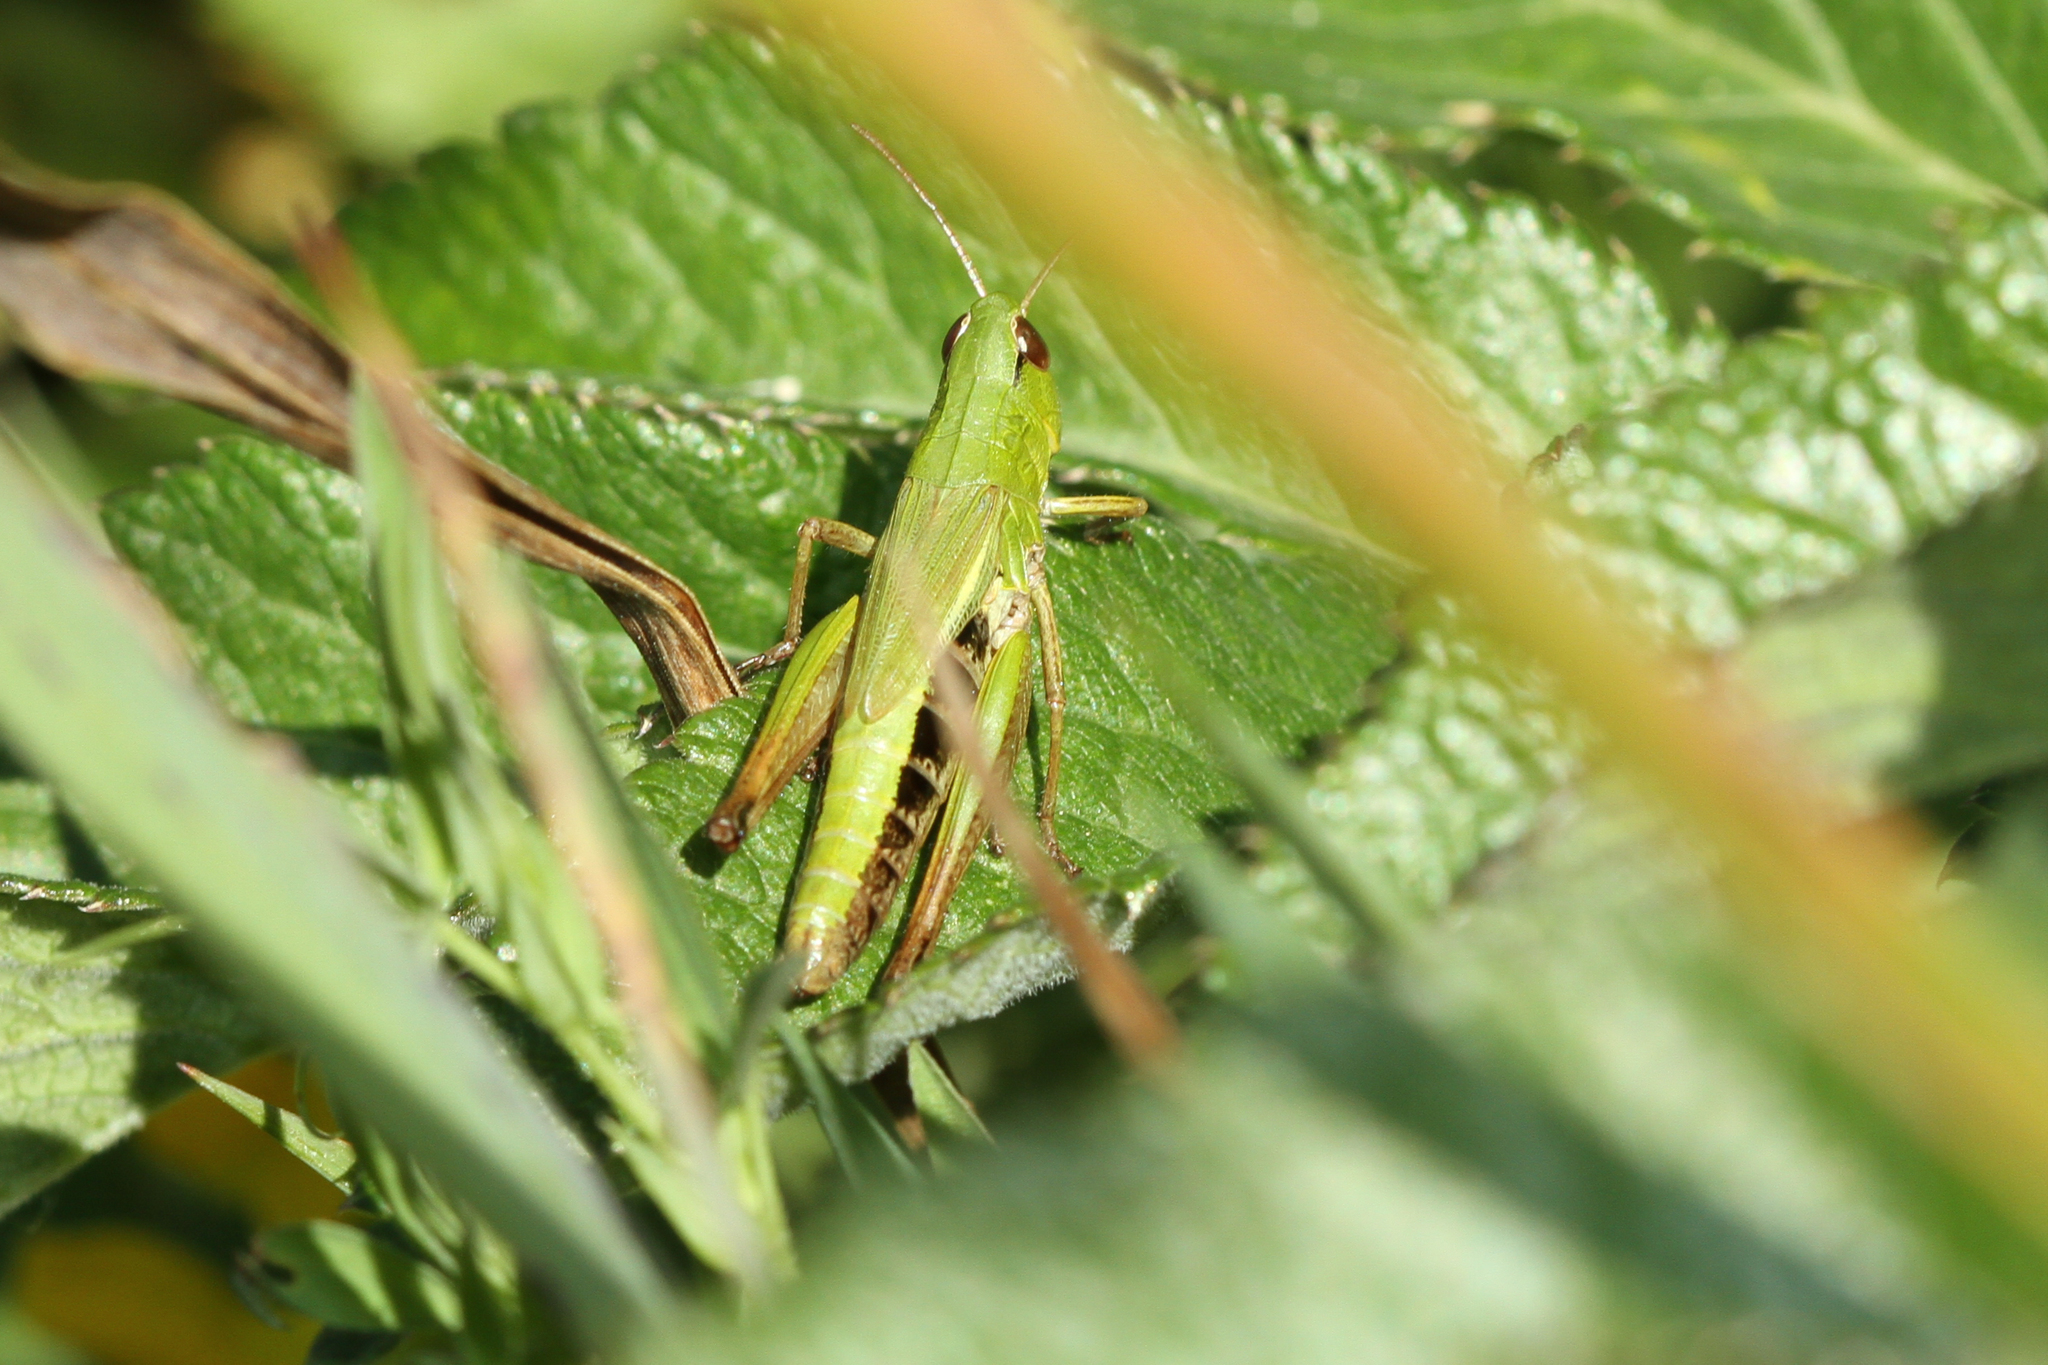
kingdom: Animalia
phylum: Arthropoda
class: Insecta
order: Orthoptera
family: Acrididae
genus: Pseudochorthippus
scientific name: Pseudochorthippus parallelus
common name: Meadow grasshopper
